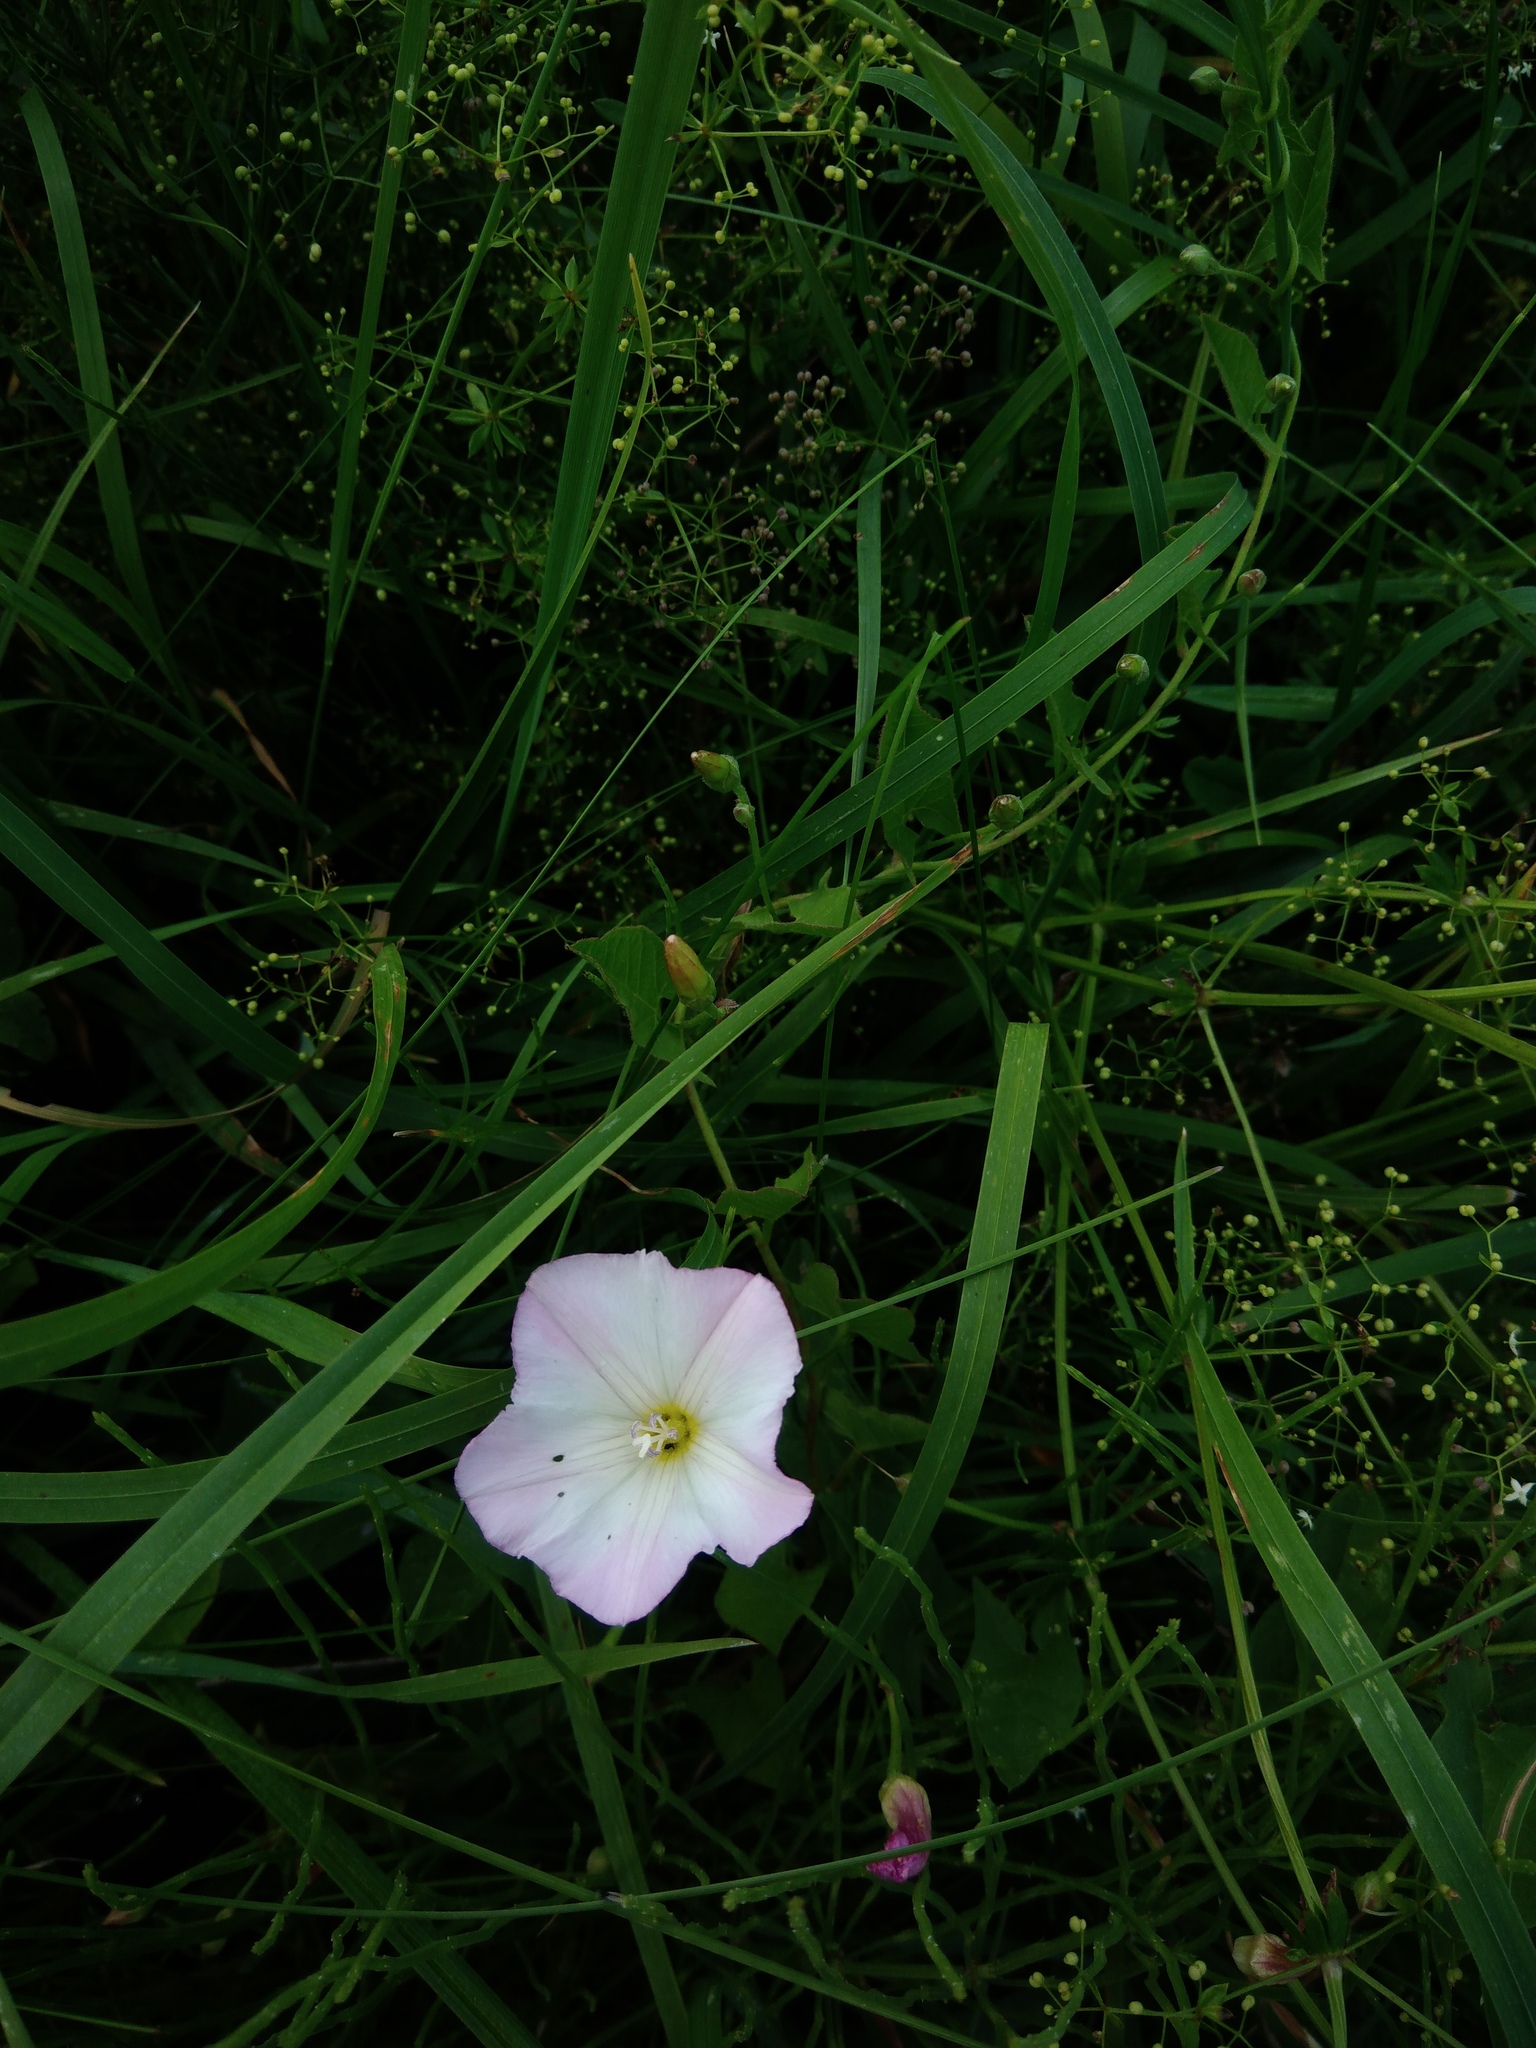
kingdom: Plantae
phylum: Tracheophyta
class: Magnoliopsida
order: Solanales
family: Convolvulaceae
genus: Convolvulus
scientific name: Convolvulus arvensis
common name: Field bindweed
